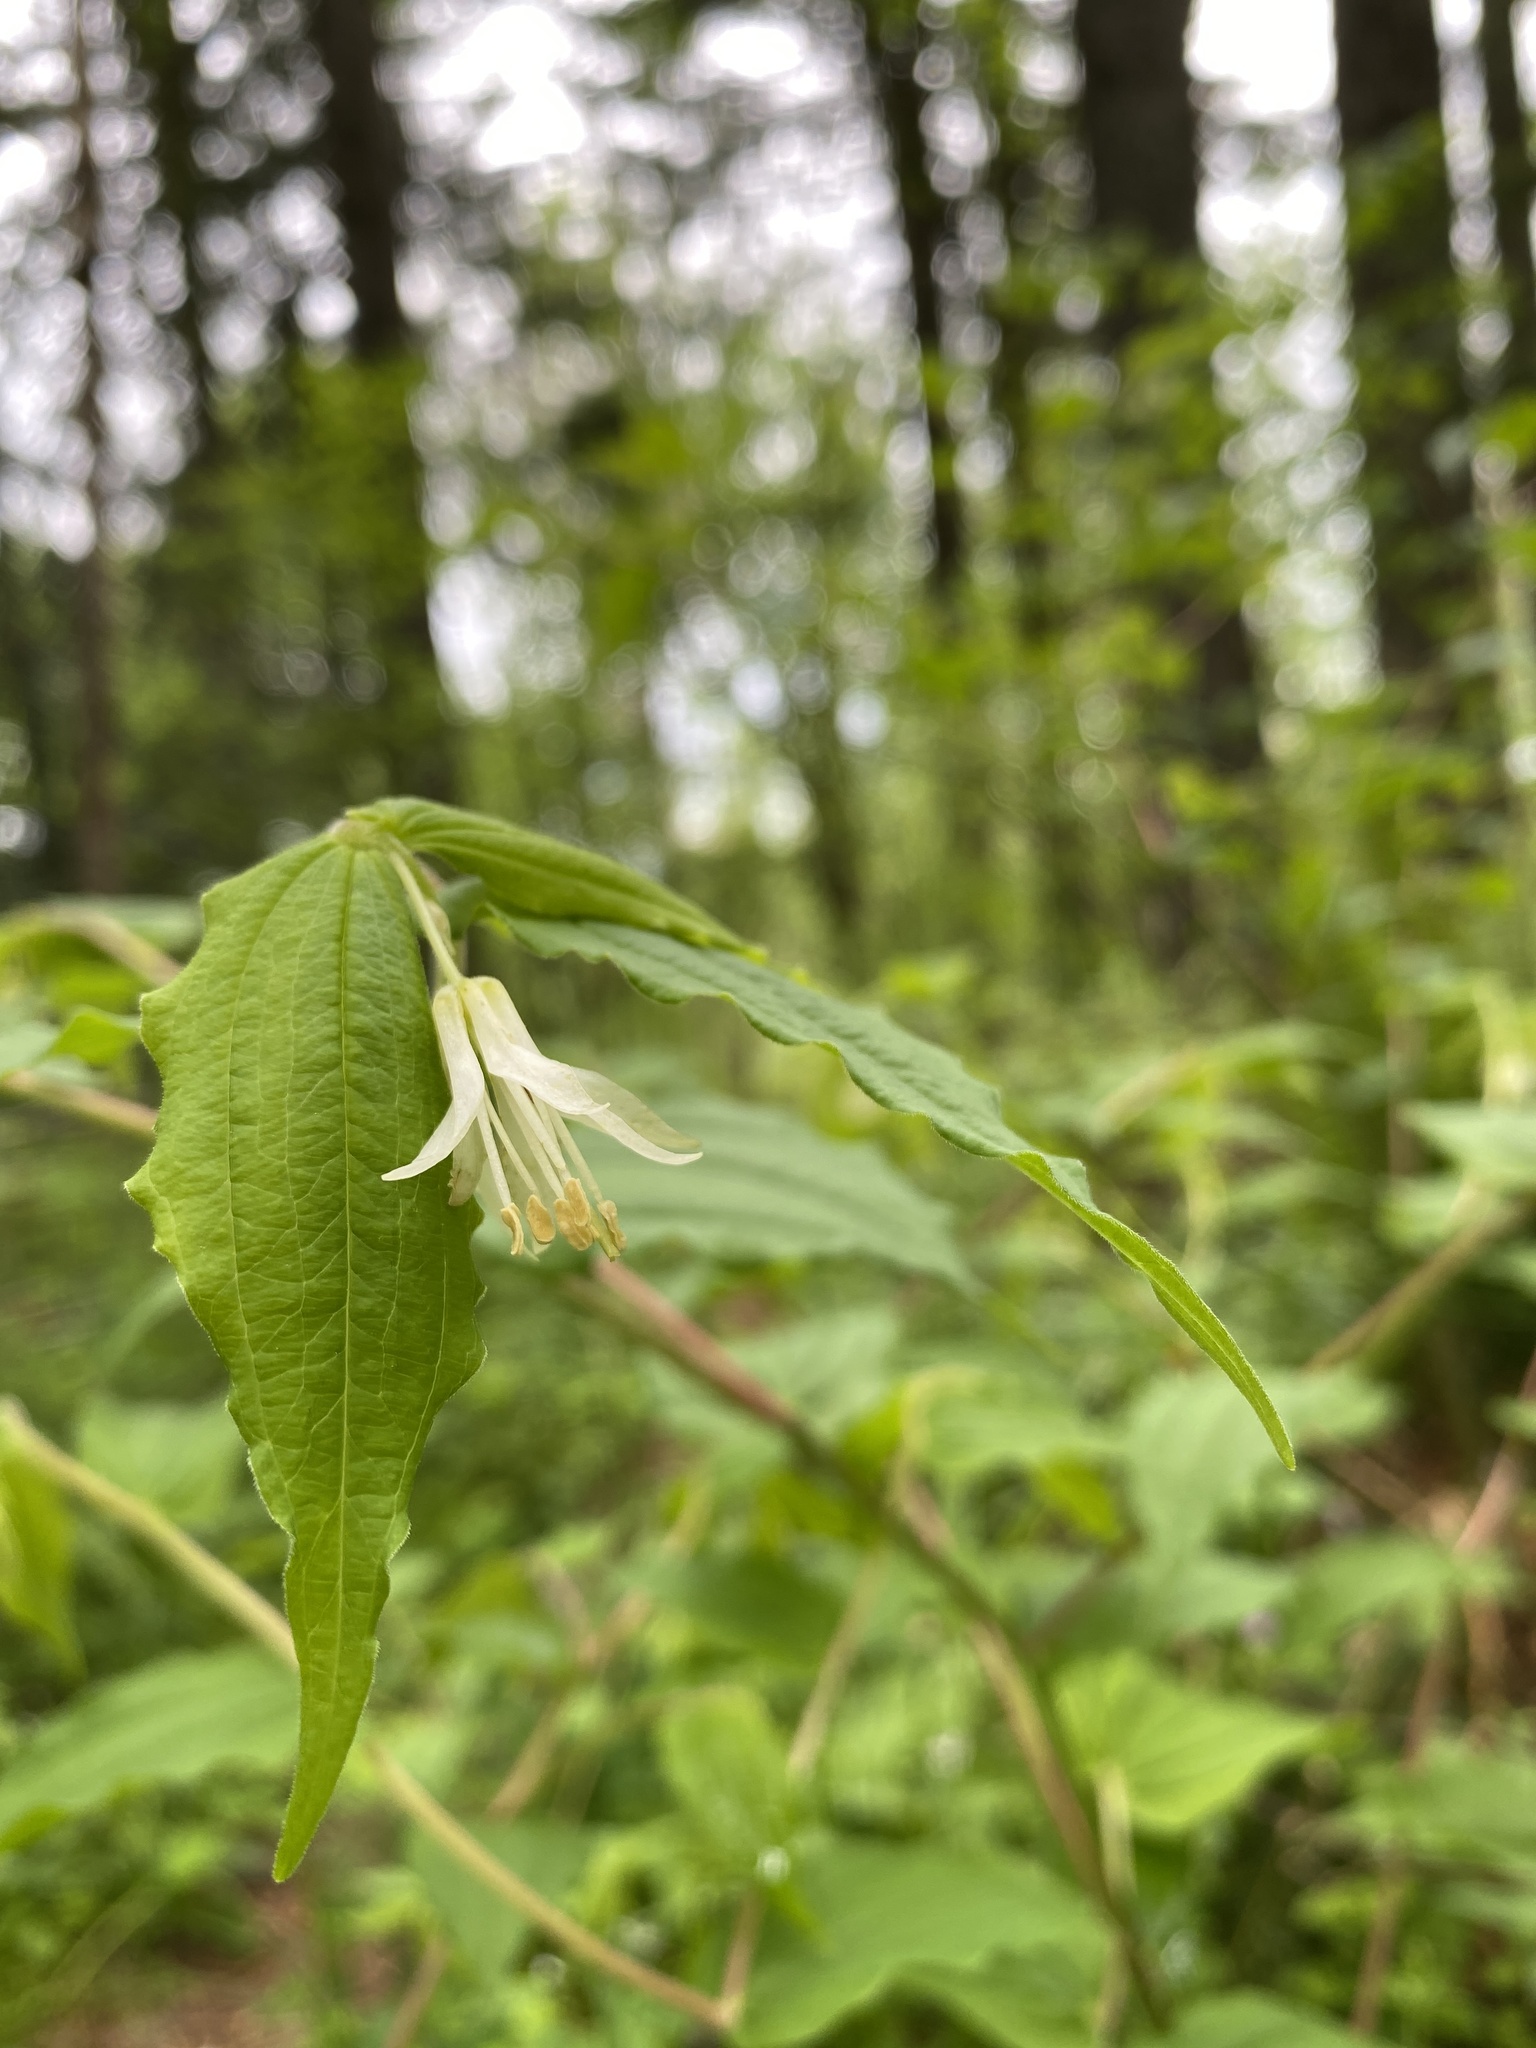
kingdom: Plantae
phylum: Tracheophyta
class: Liliopsida
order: Liliales
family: Liliaceae
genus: Prosartes
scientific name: Prosartes hookeri
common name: Fairy-bells
